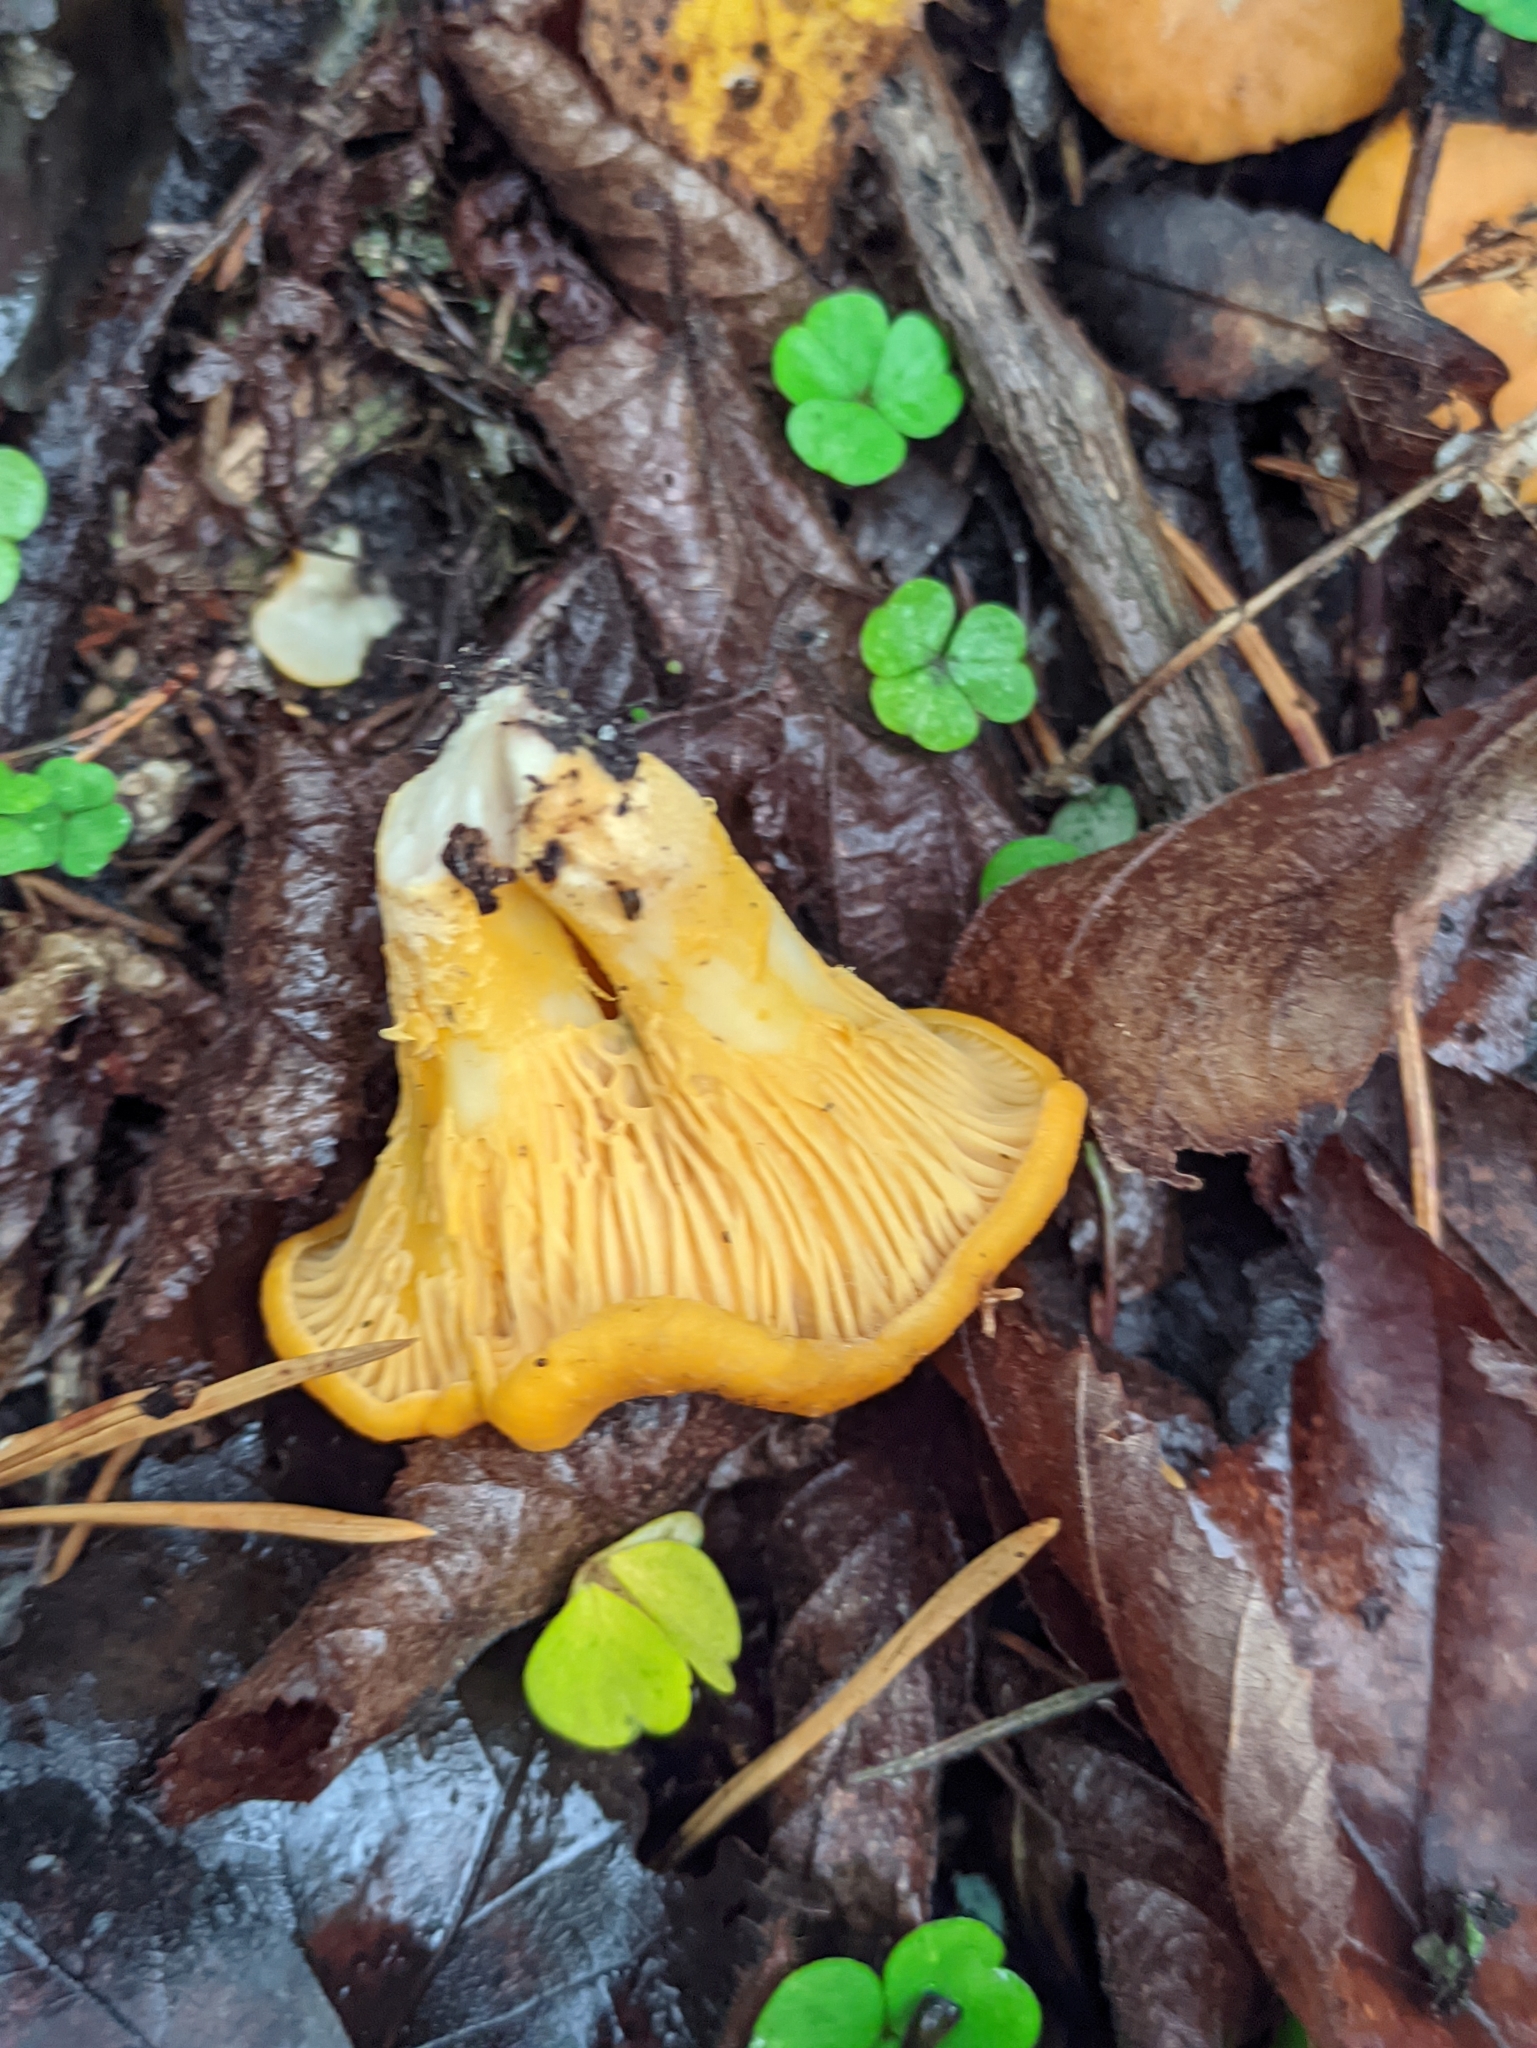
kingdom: Fungi
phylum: Basidiomycota
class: Agaricomycetes
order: Cantharellales
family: Hydnaceae
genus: Cantharellus
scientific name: Cantharellus cibarius
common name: Chanterelle
